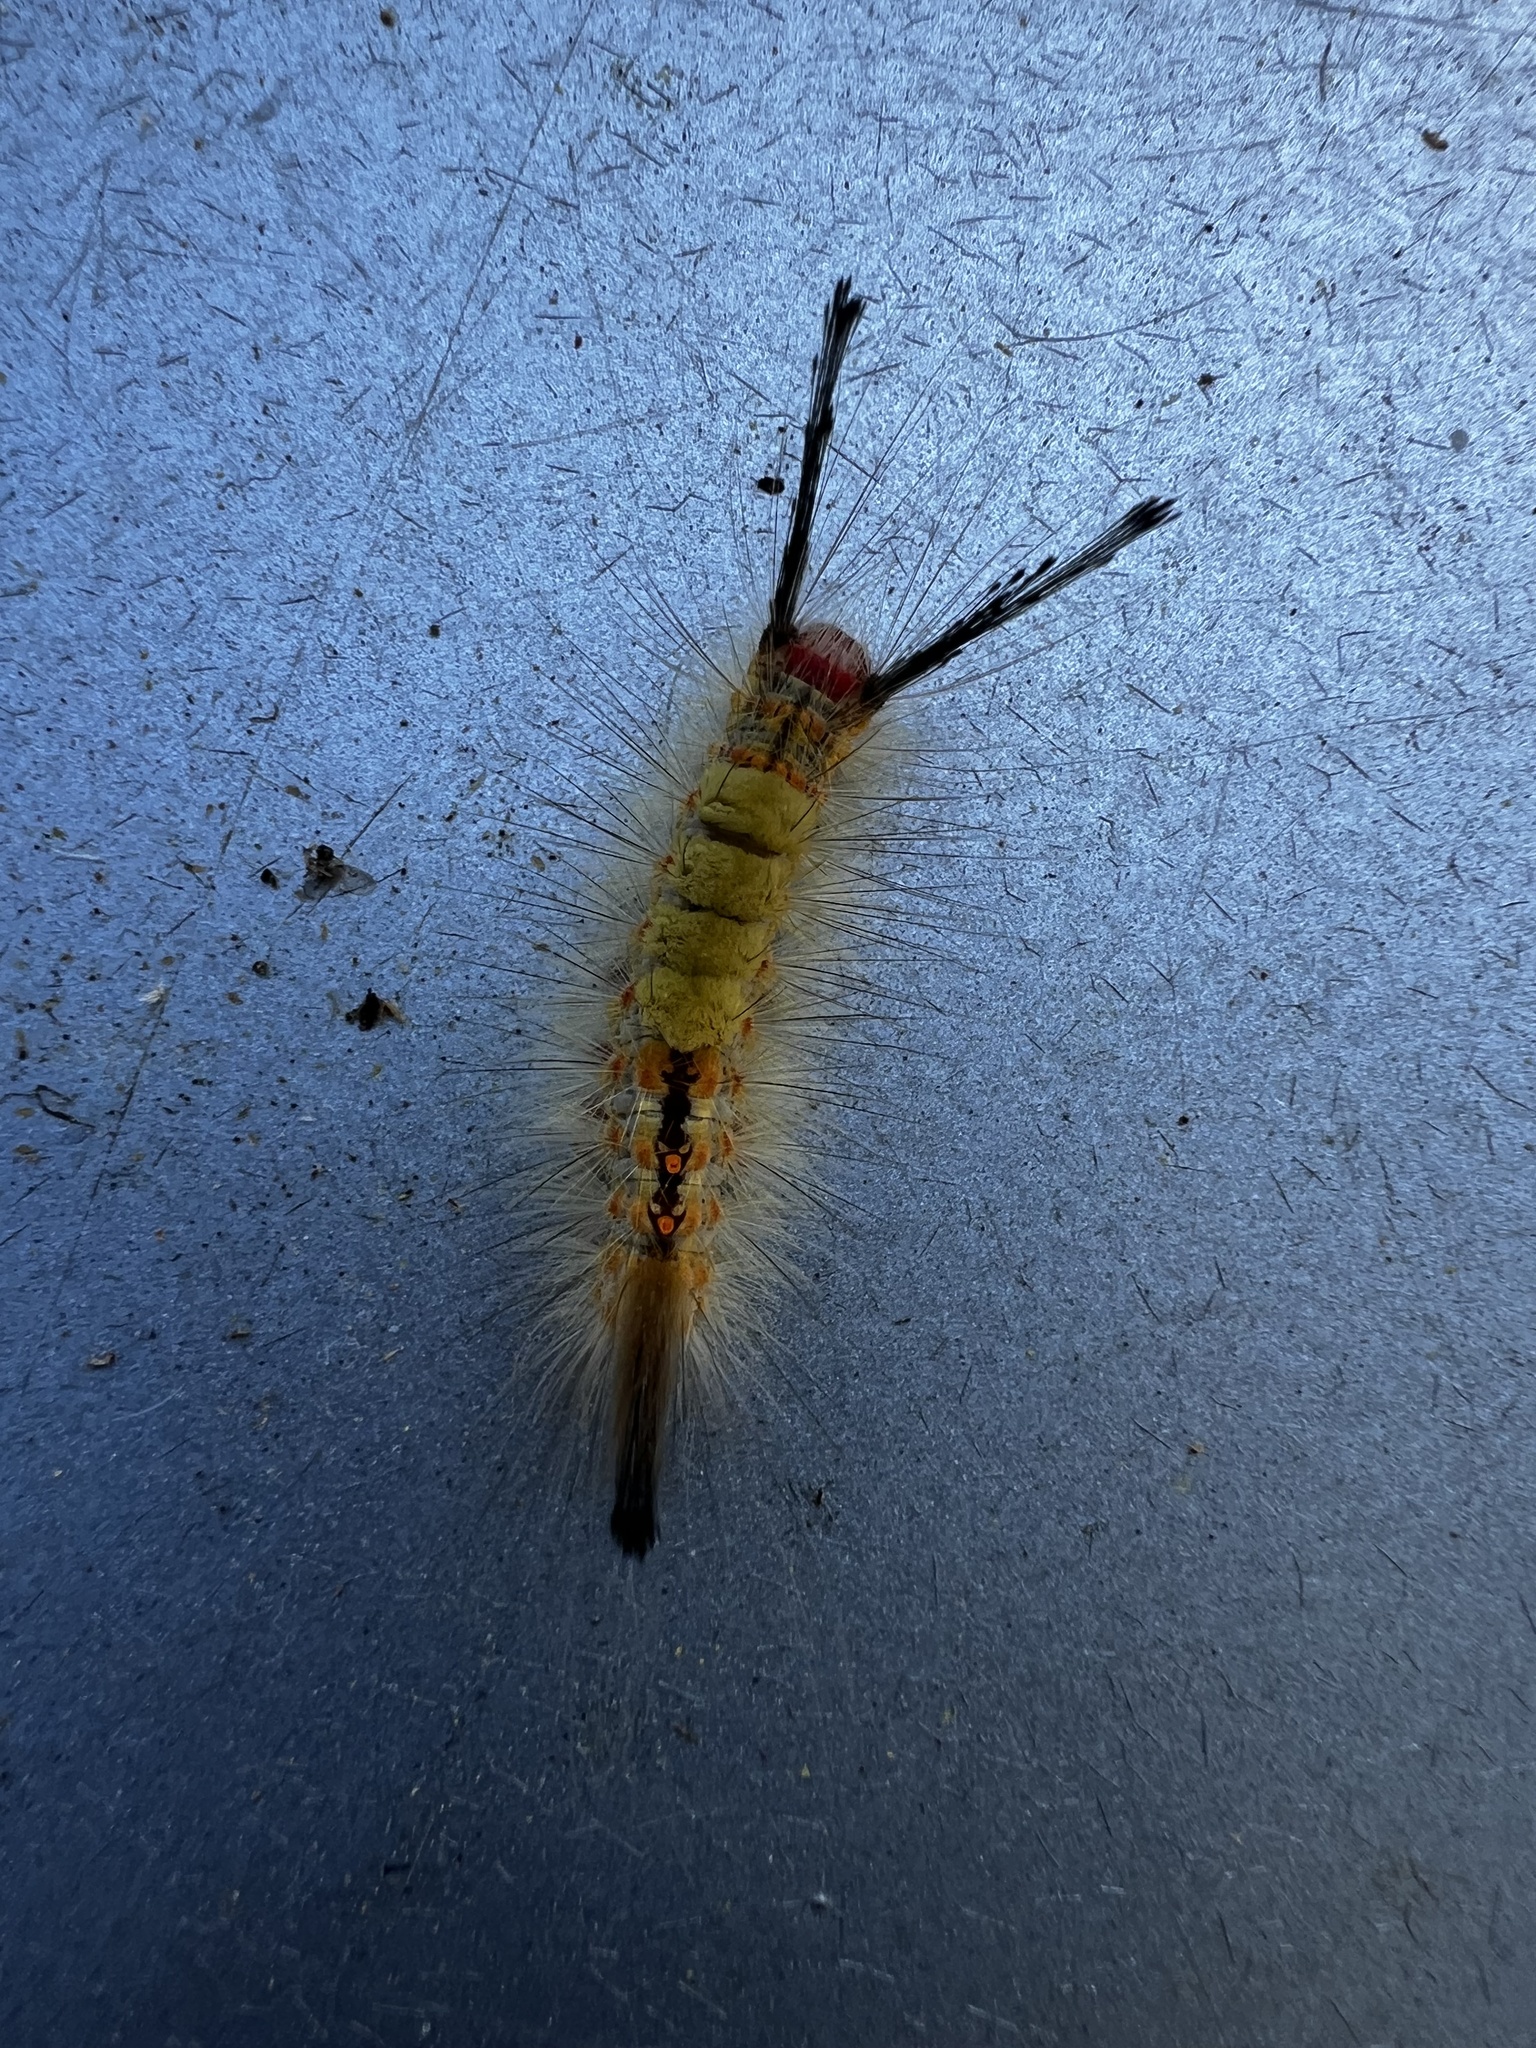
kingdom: Animalia
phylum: Arthropoda
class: Insecta
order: Lepidoptera
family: Erebidae
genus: Orgyia
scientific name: Orgyia detrita
